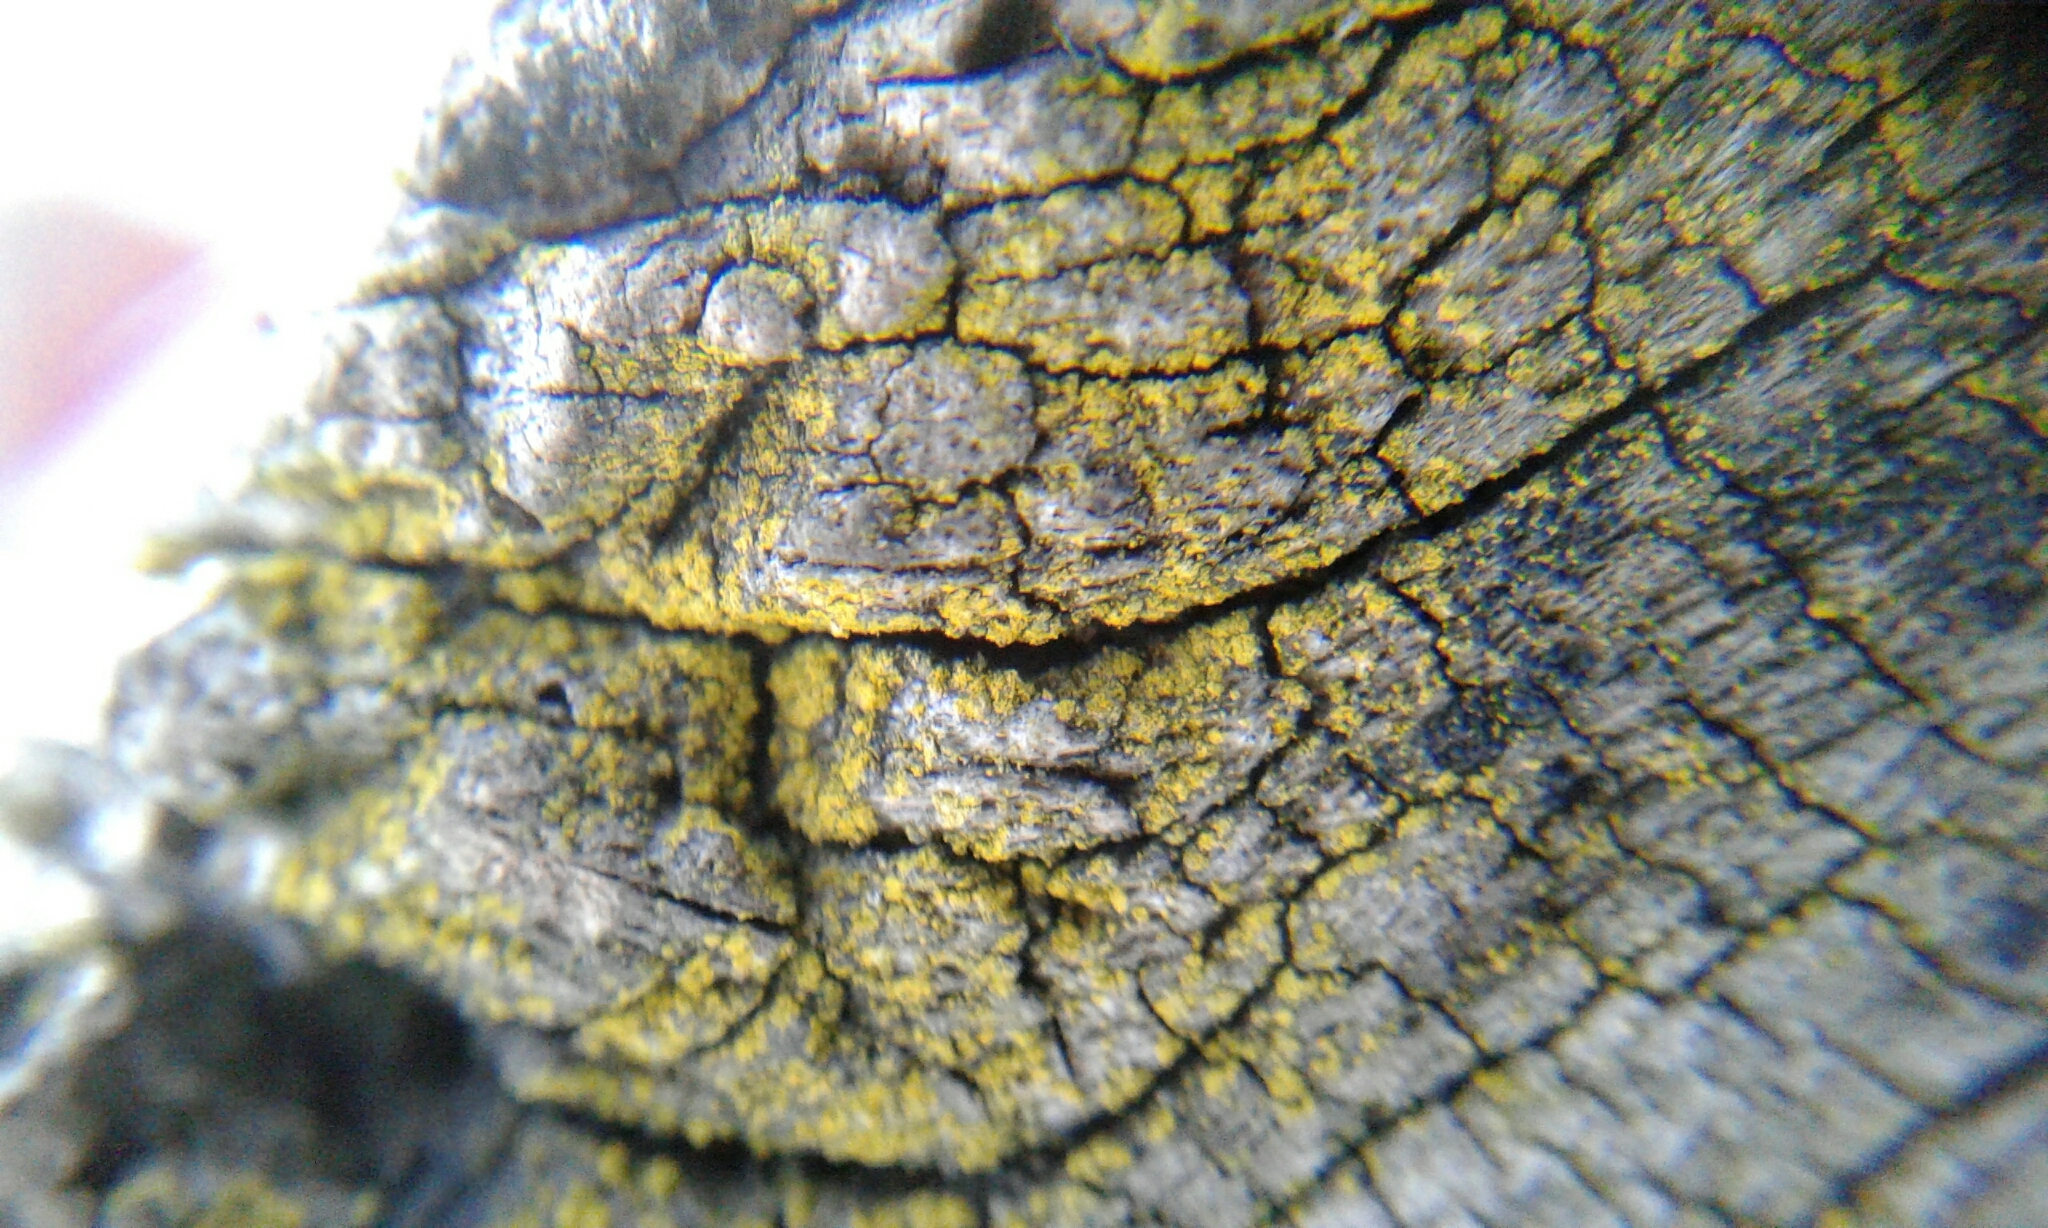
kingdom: Fungi
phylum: Ascomycota
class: Candelariomycetes
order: Candelariales
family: Candelariaceae
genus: Candelariella
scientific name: Candelariella efflorescens
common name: Powdery goldspeck
